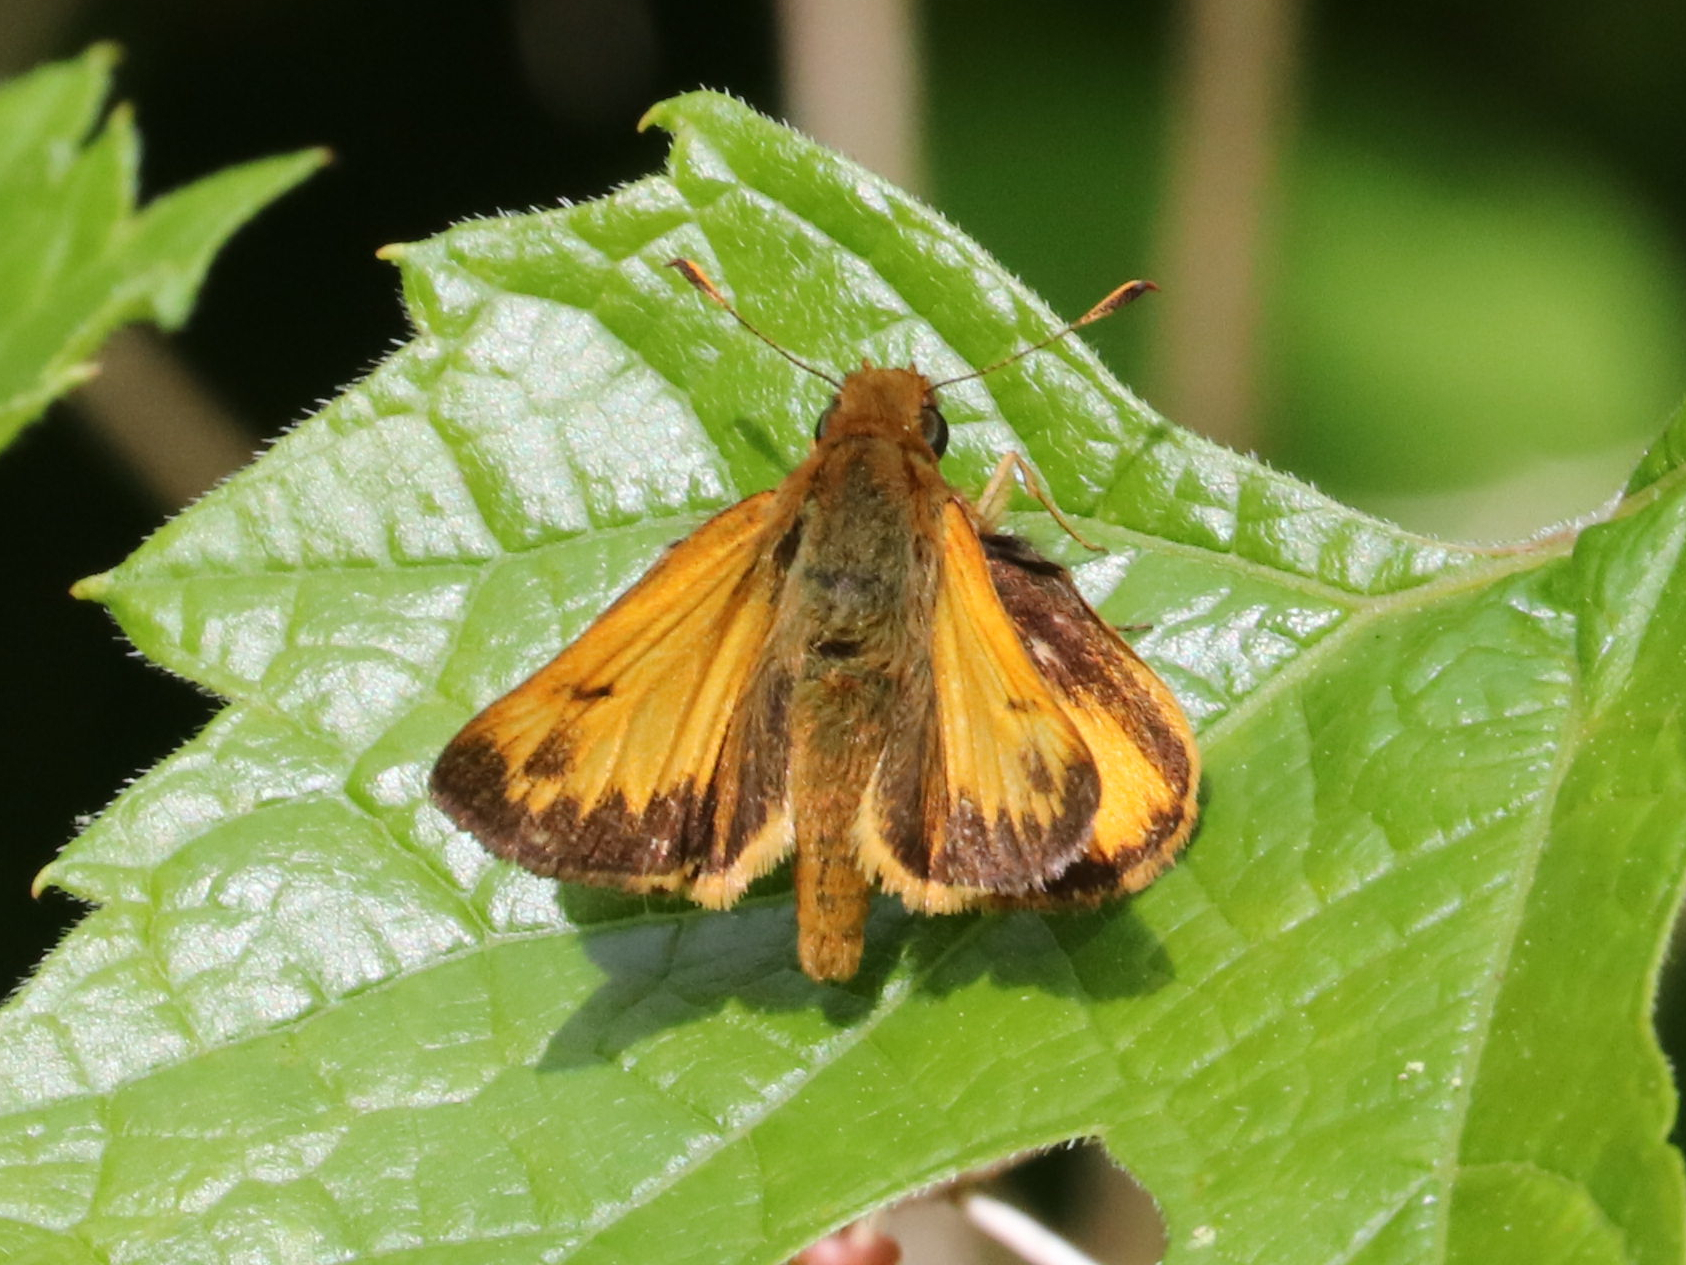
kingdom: Animalia
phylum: Arthropoda
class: Insecta
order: Lepidoptera
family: Hesperiidae
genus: Lon
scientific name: Lon zabulon
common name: Zabulon skipper
